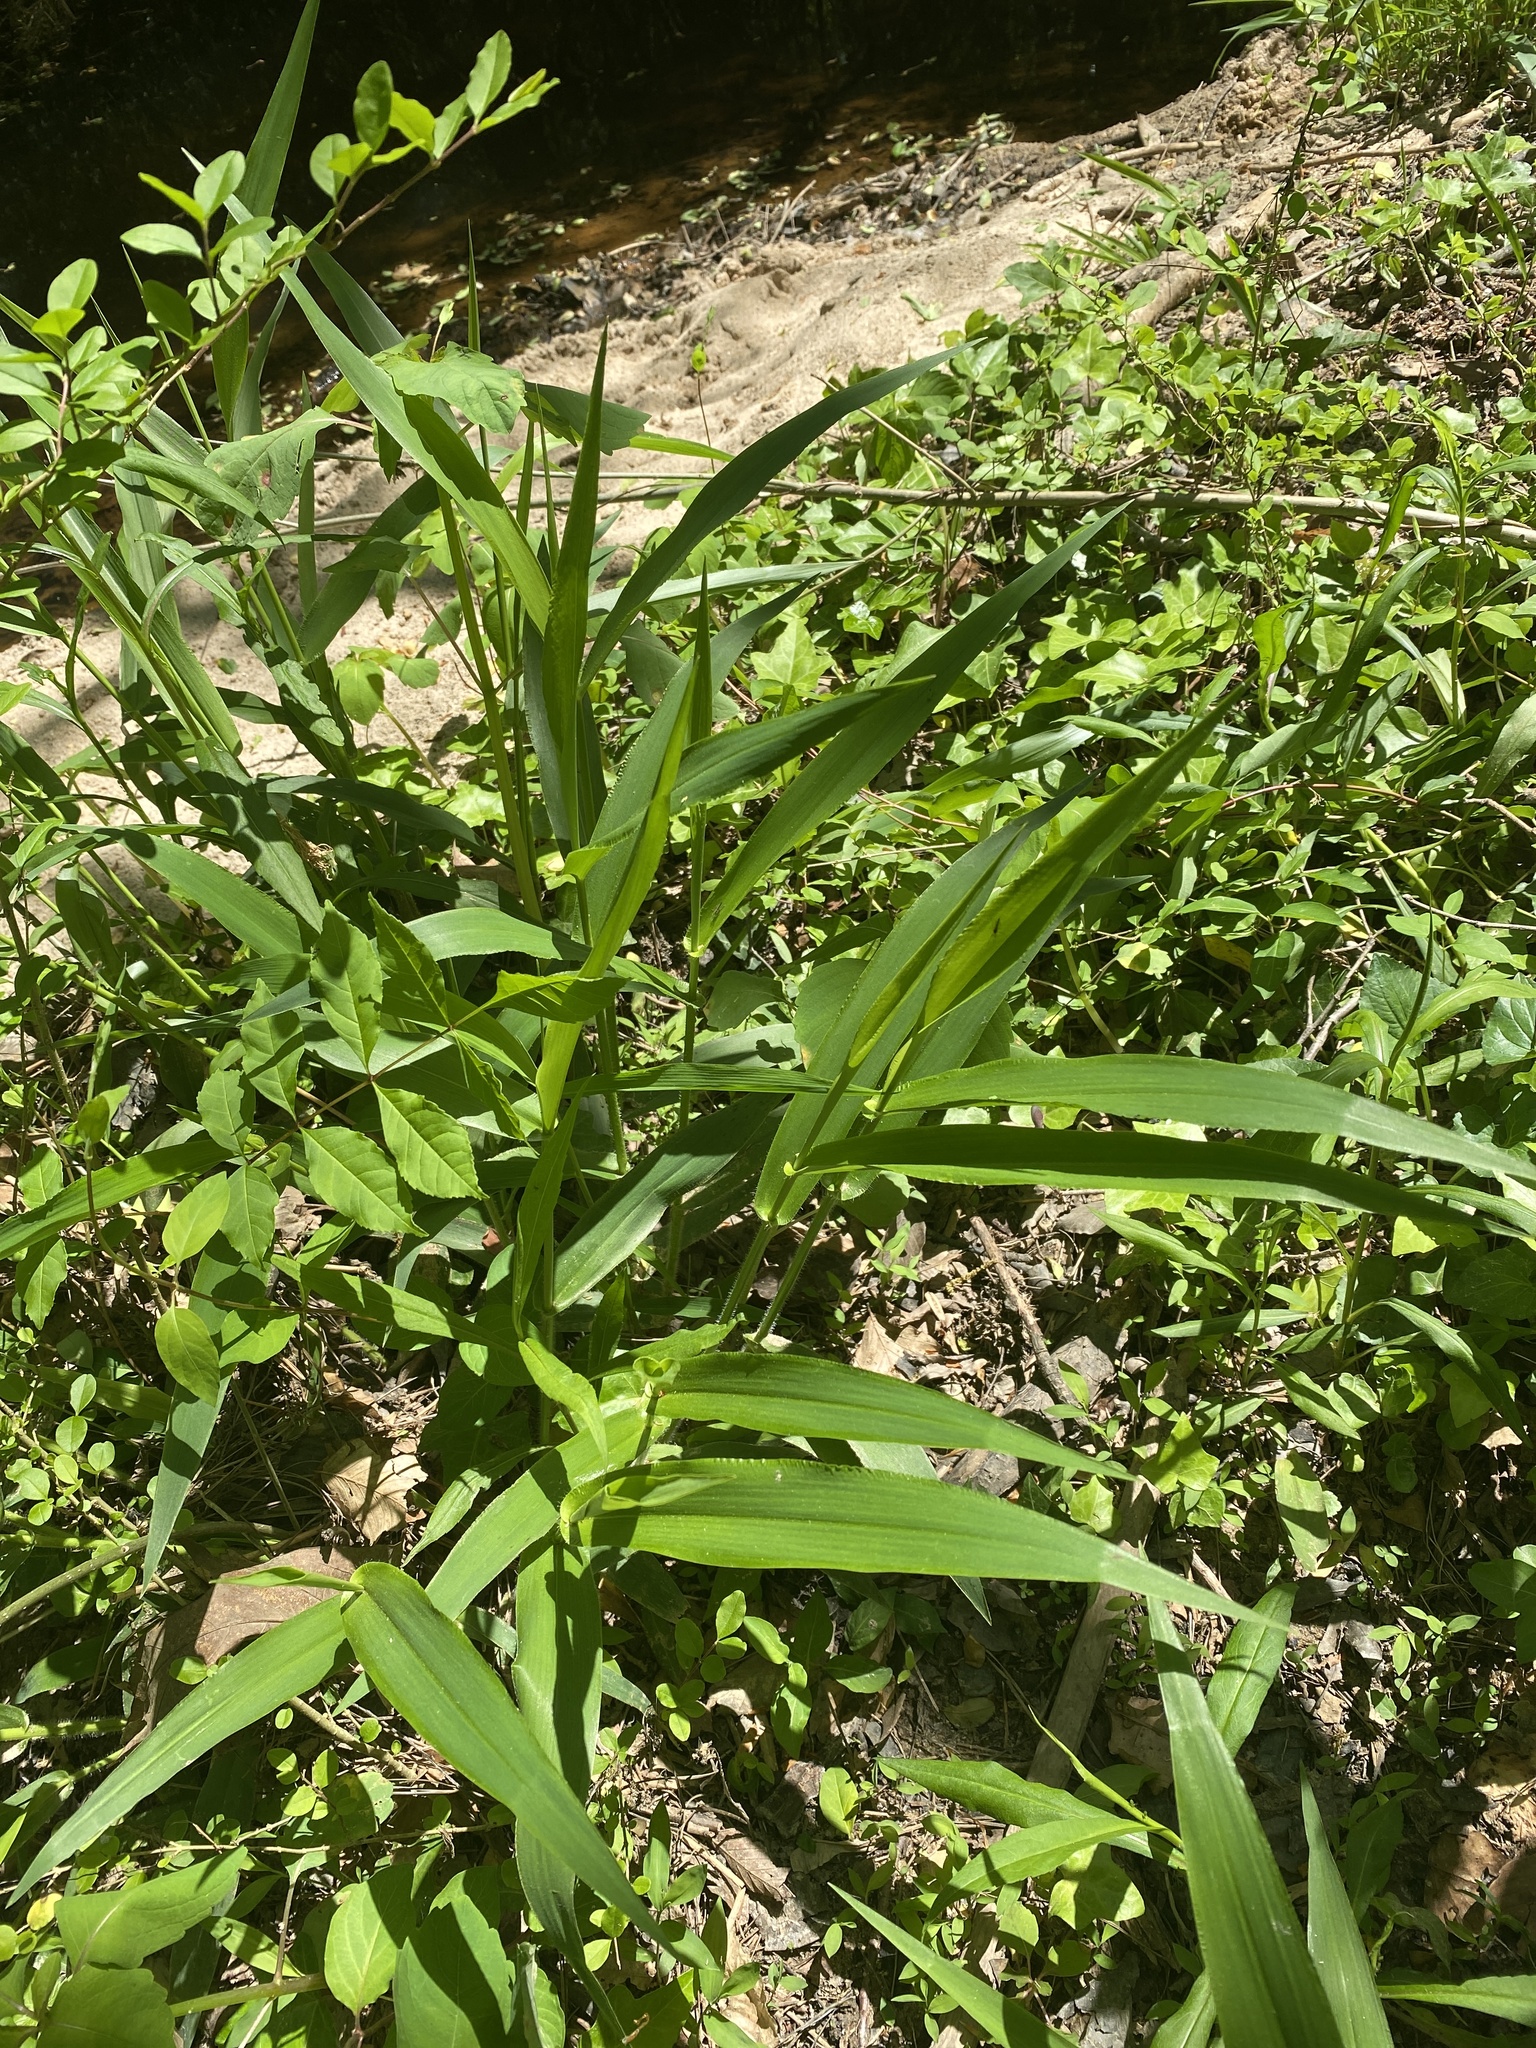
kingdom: Plantae
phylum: Tracheophyta
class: Liliopsida
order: Poales
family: Poaceae
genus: Dichanthelium
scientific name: Dichanthelium clandestinum
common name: Deer-tongue grass
